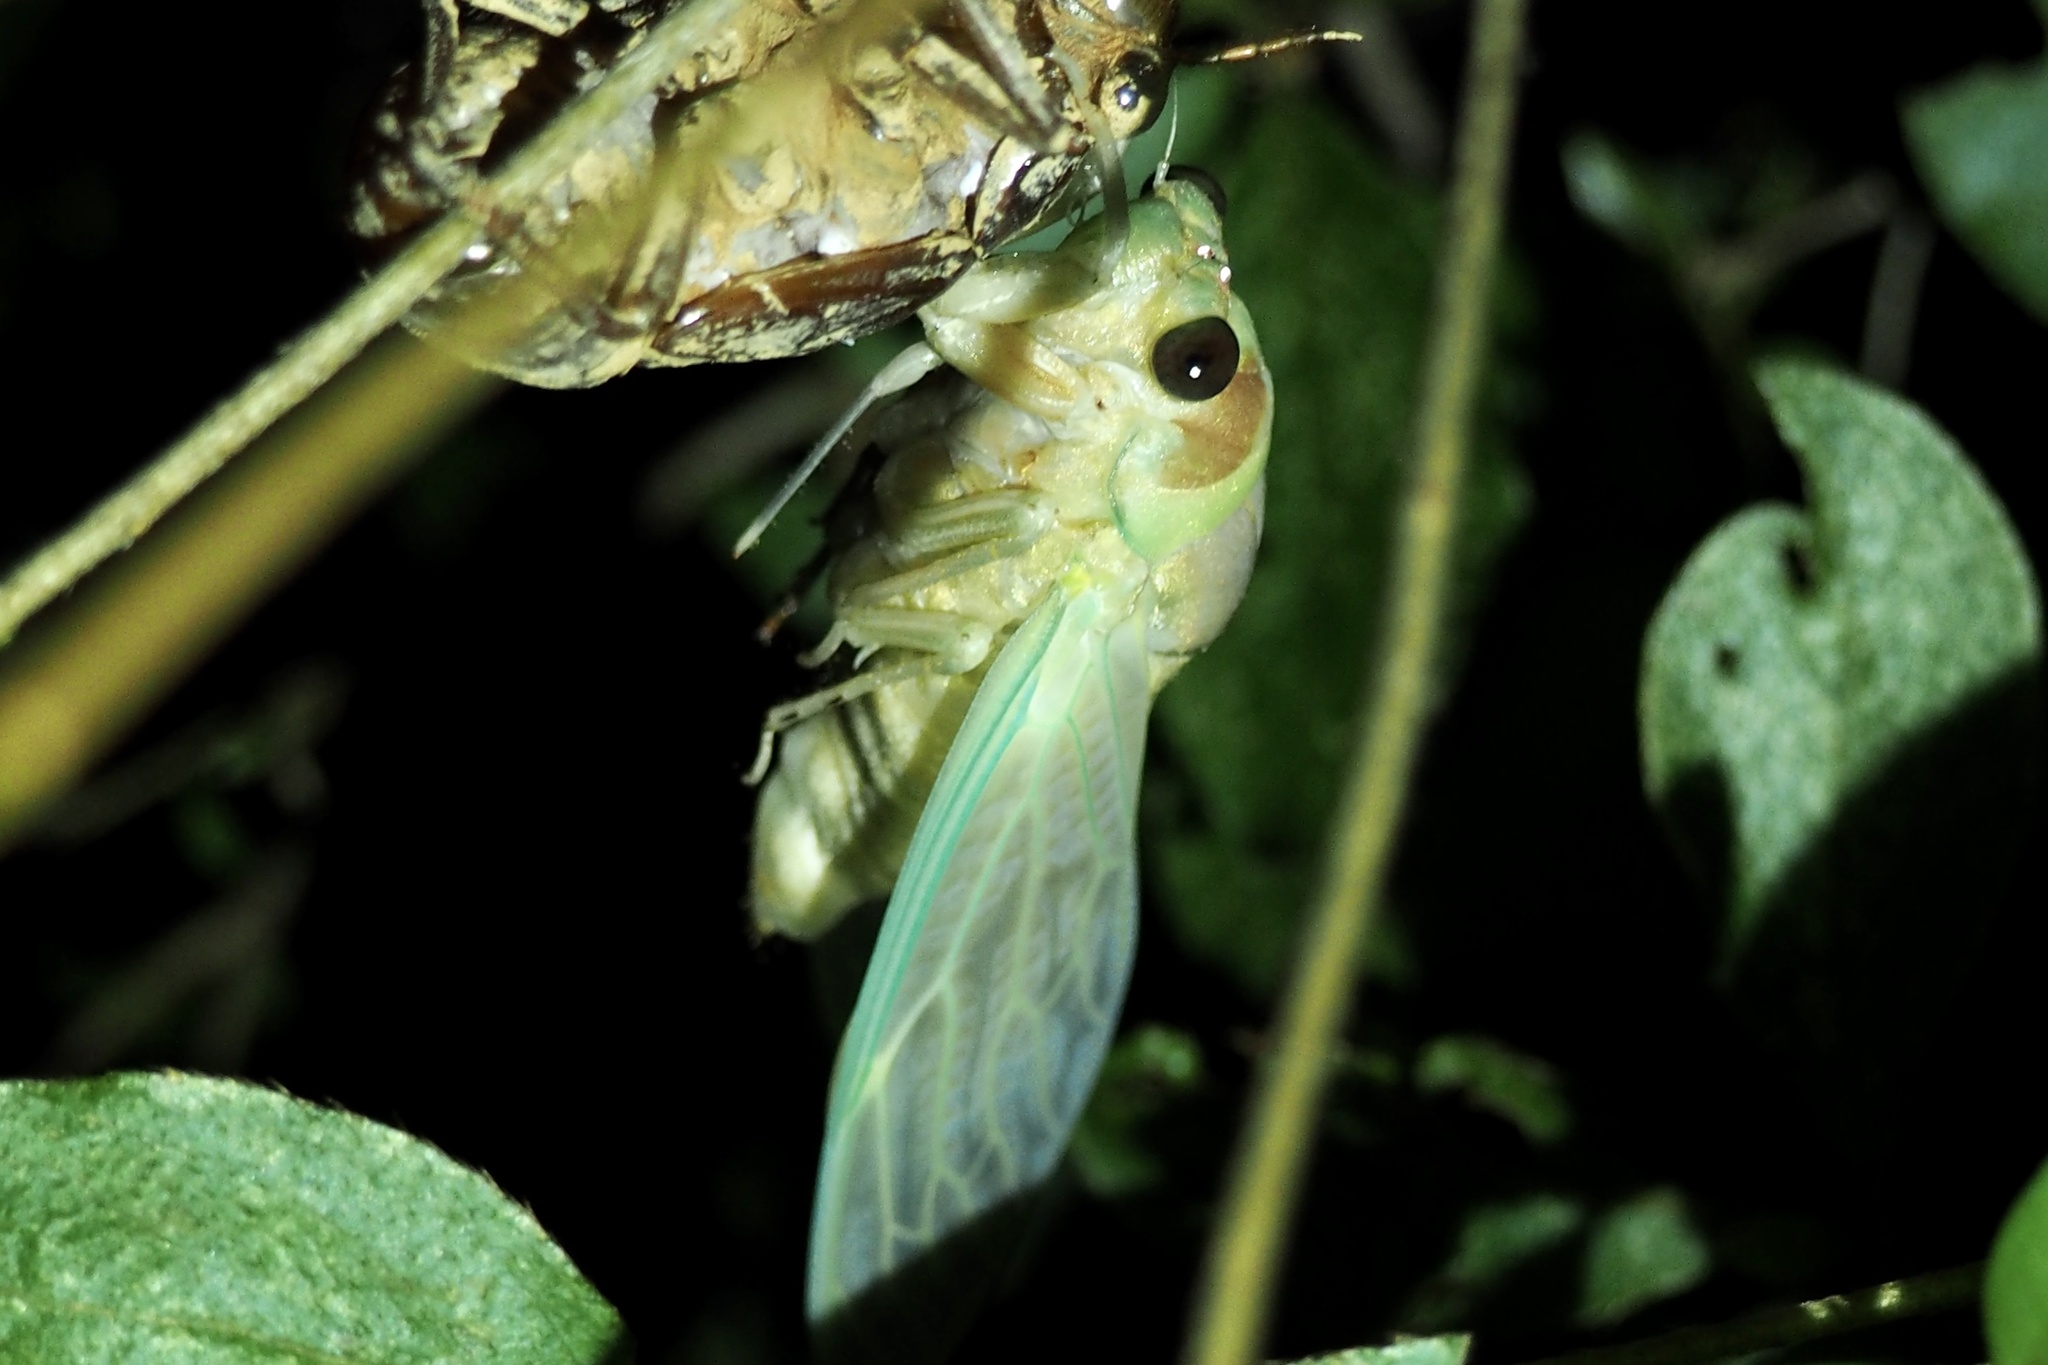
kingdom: Animalia
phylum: Arthropoda
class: Insecta
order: Hemiptera
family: Cicadidae
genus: Graptopsaltria
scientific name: Graptopsaltria nigrofuscata
